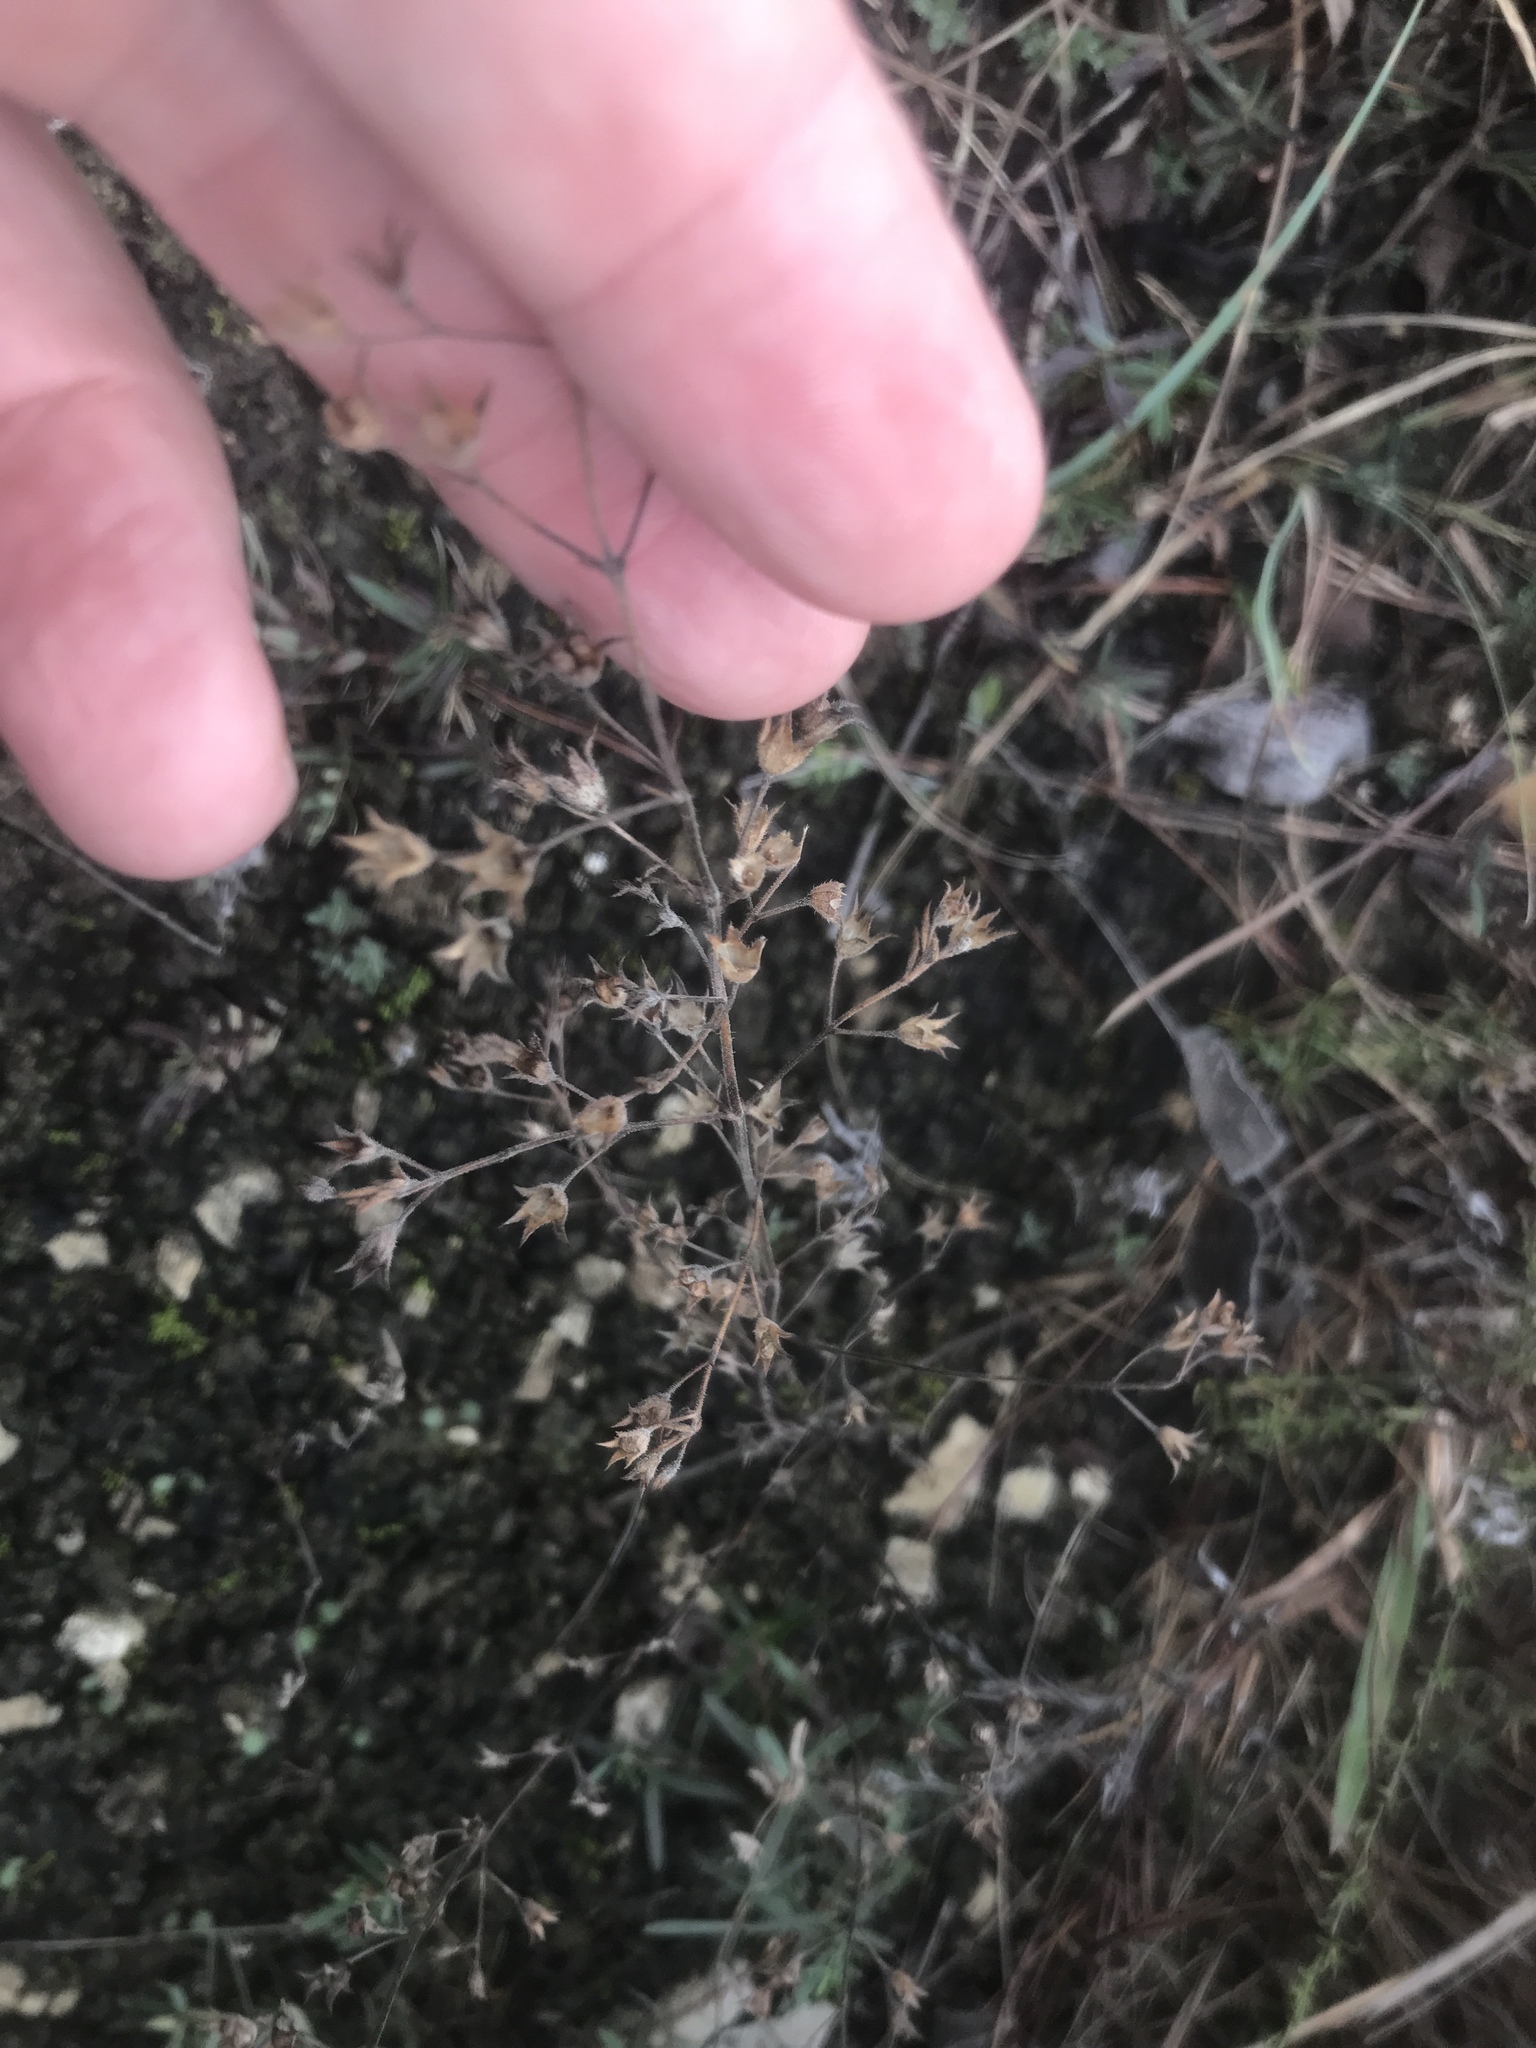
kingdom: Plantae
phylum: Tracheophyta
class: Magnoliopsida
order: Lamiales
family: Lamiaceae
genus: Trichostema
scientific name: Trichostema brachiatum
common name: False pennyroyal
